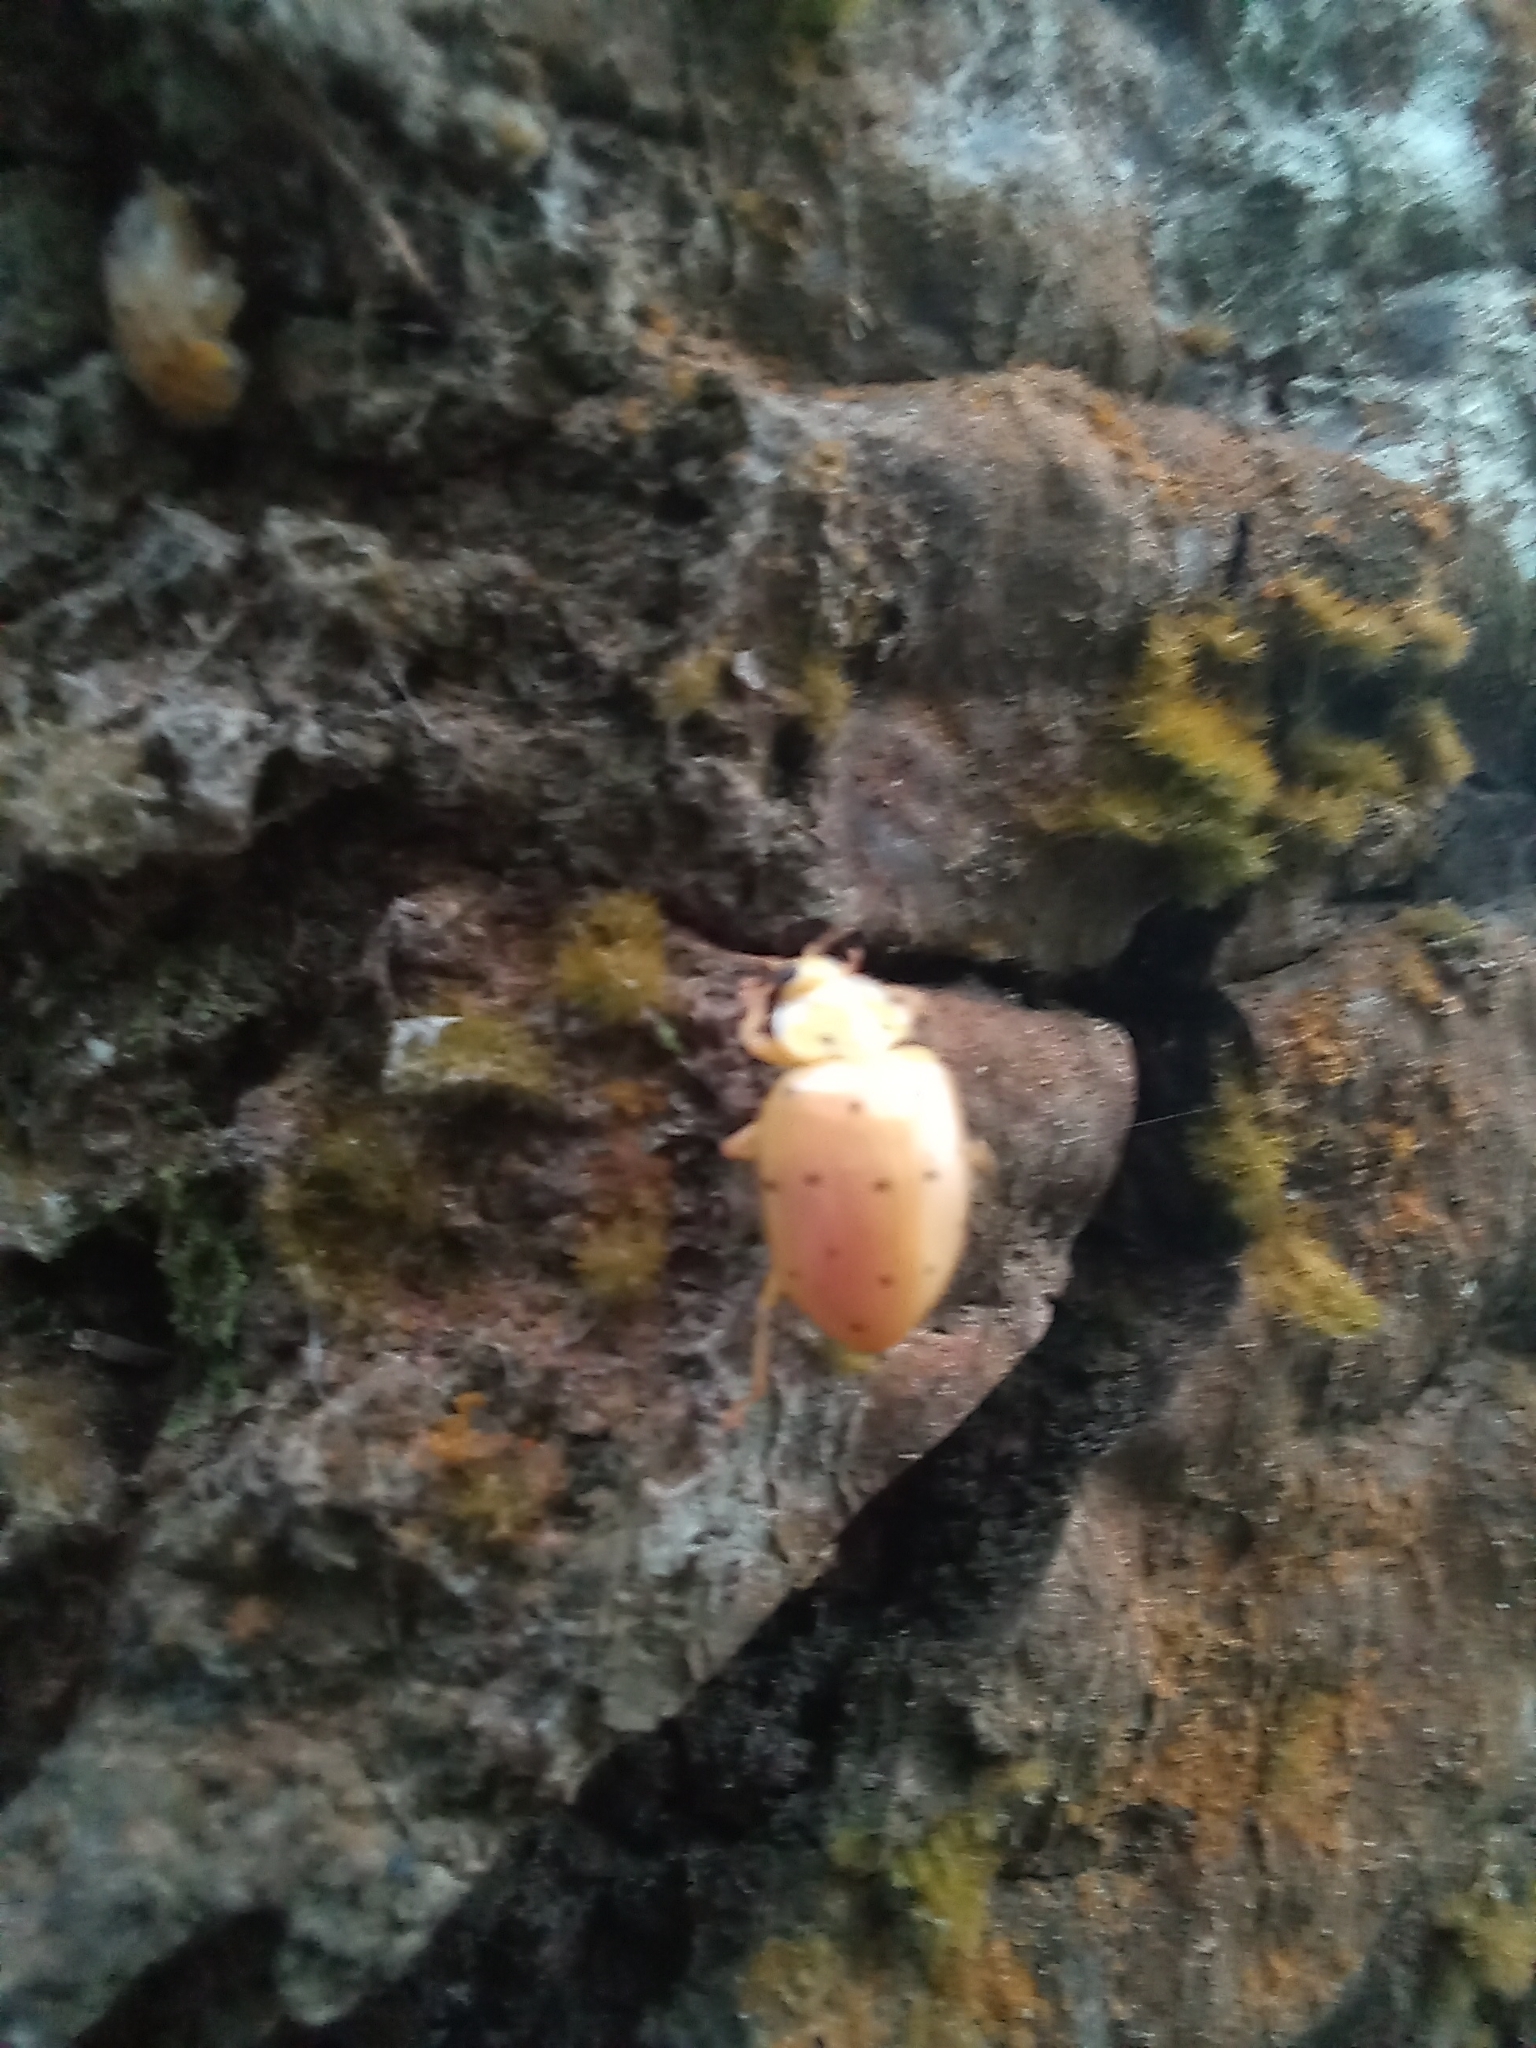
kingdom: Animalia
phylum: Arthropoda
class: Insecta
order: Coleoptera
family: Coccinellidae
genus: Neohalyzia
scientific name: Neohalyzia
